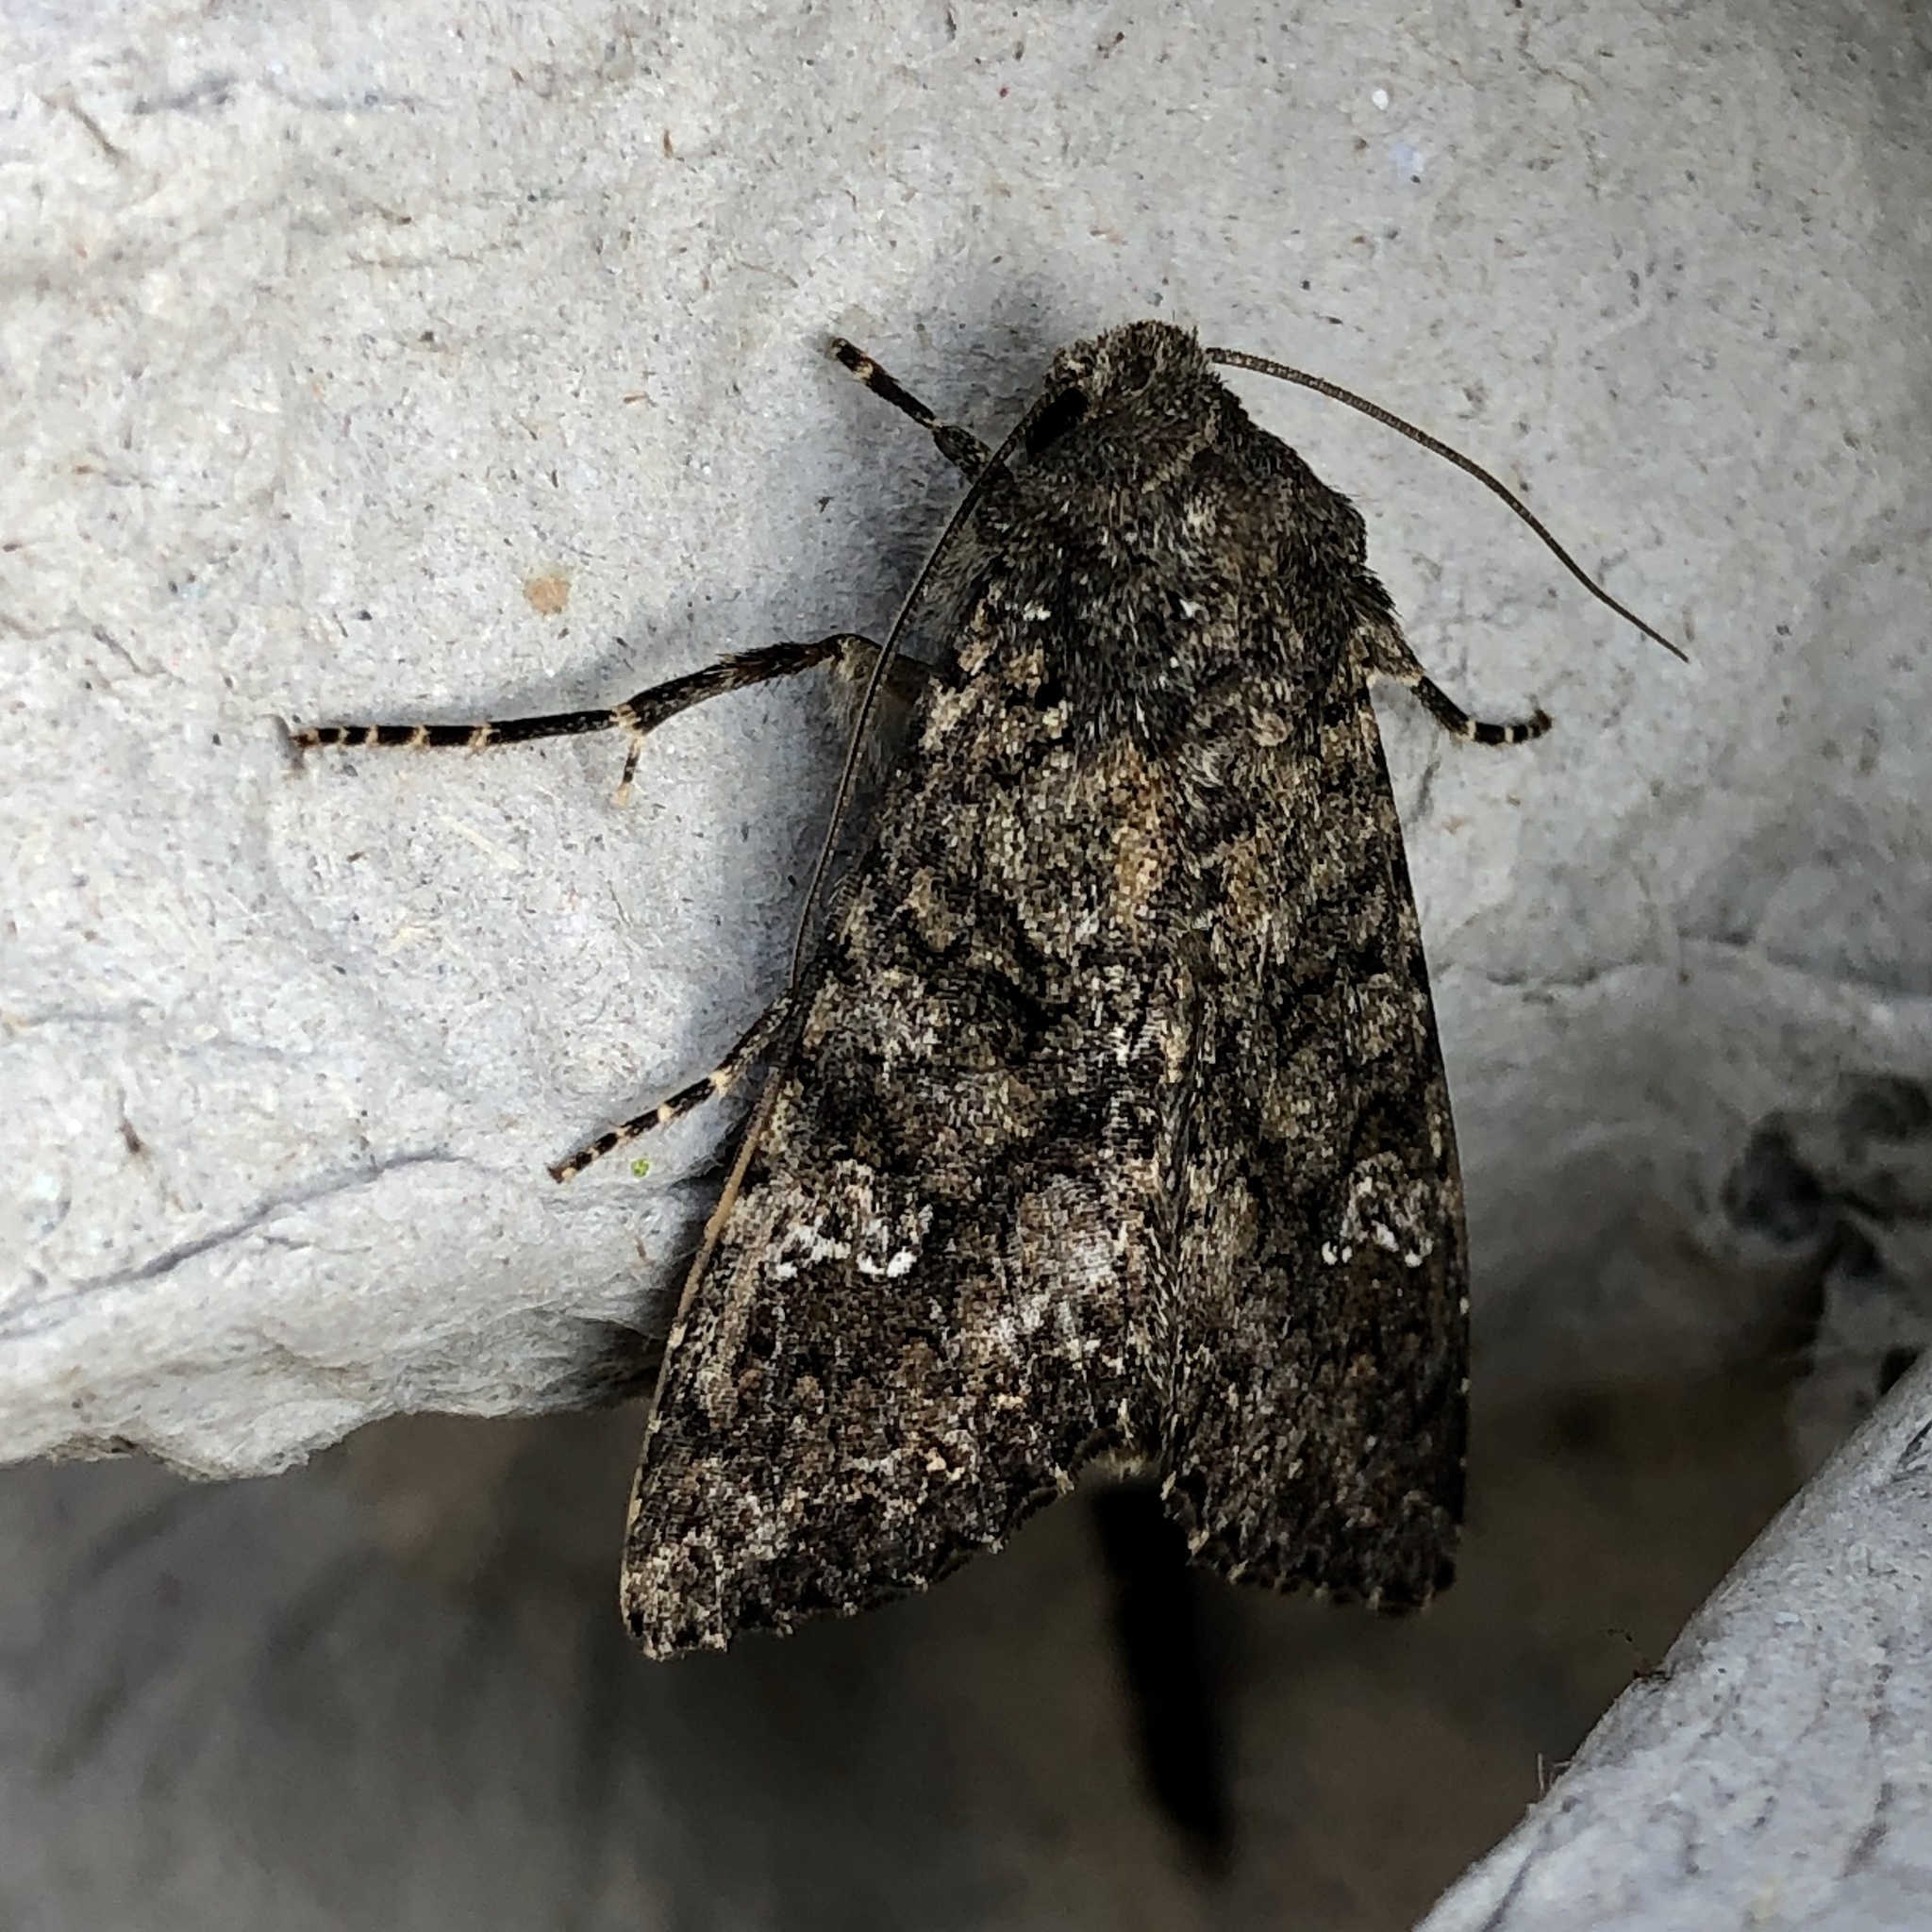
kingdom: Animalia
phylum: Arthropoda
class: Insecta
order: Lepidoptera
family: Noctuidae
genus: Mamestra
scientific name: Mamestra brassicae
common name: Cabbage moth
